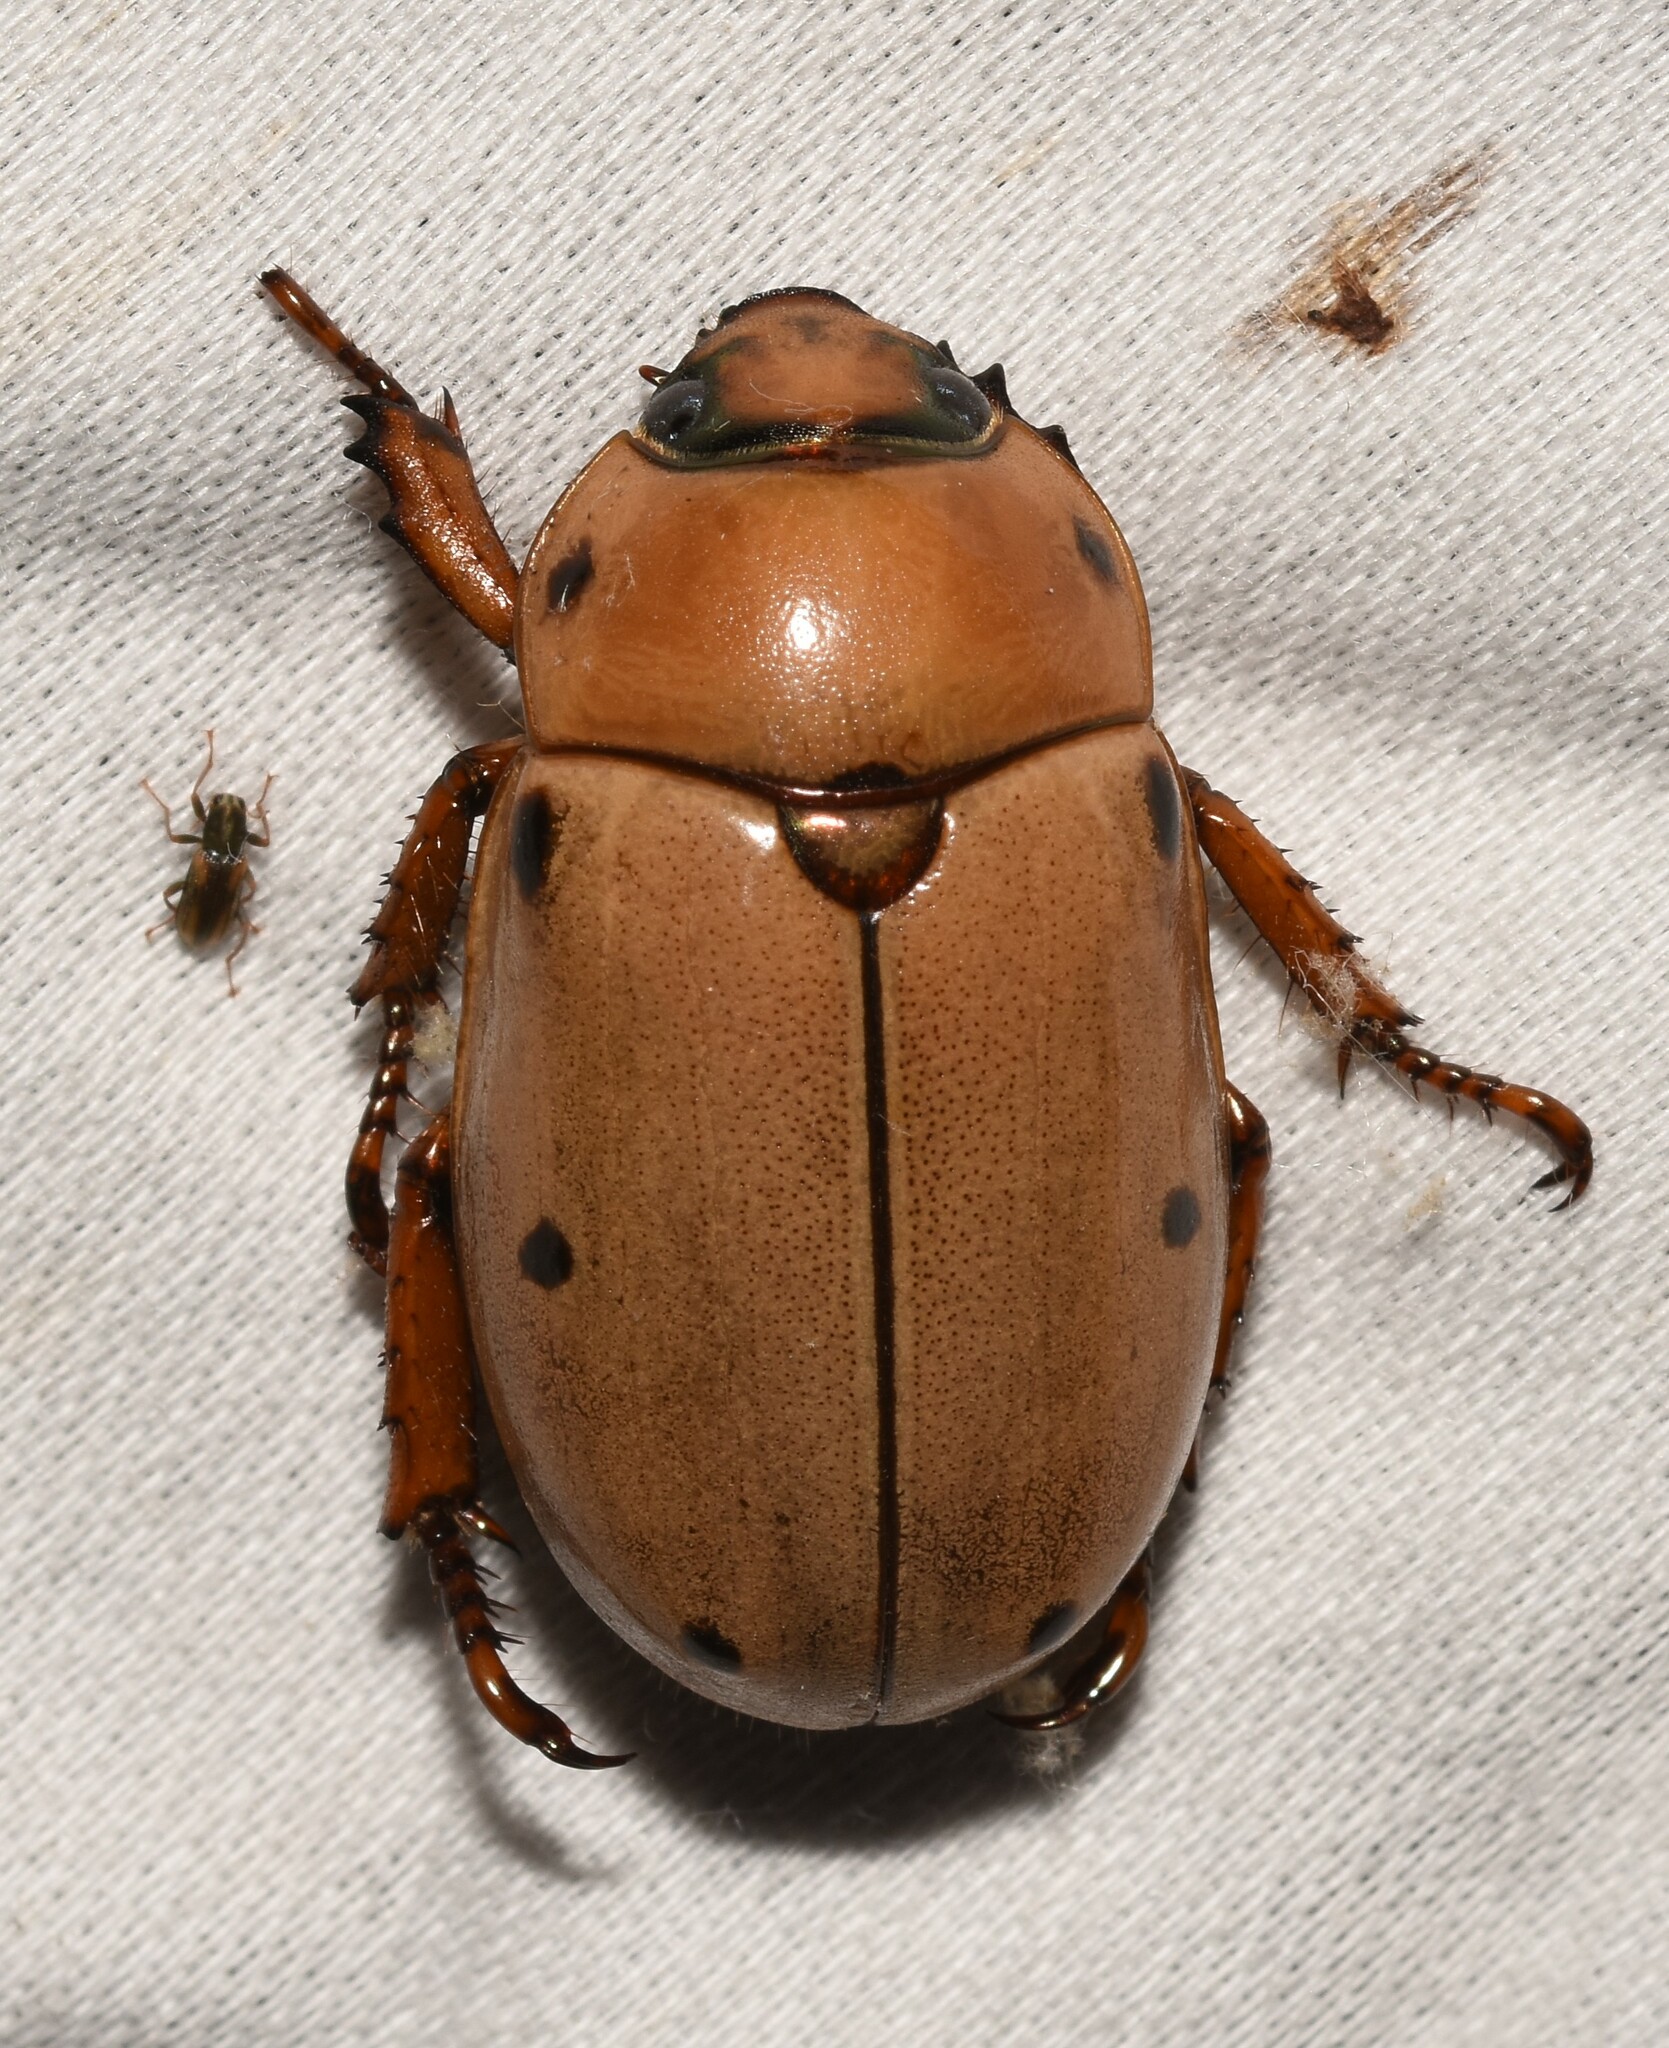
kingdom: Animalia
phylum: Arthropoda
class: Insecta
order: Coleoptera
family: Scarabaeidae
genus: Pelidnota
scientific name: Pelidnota punctata
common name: Grapevine beetle
